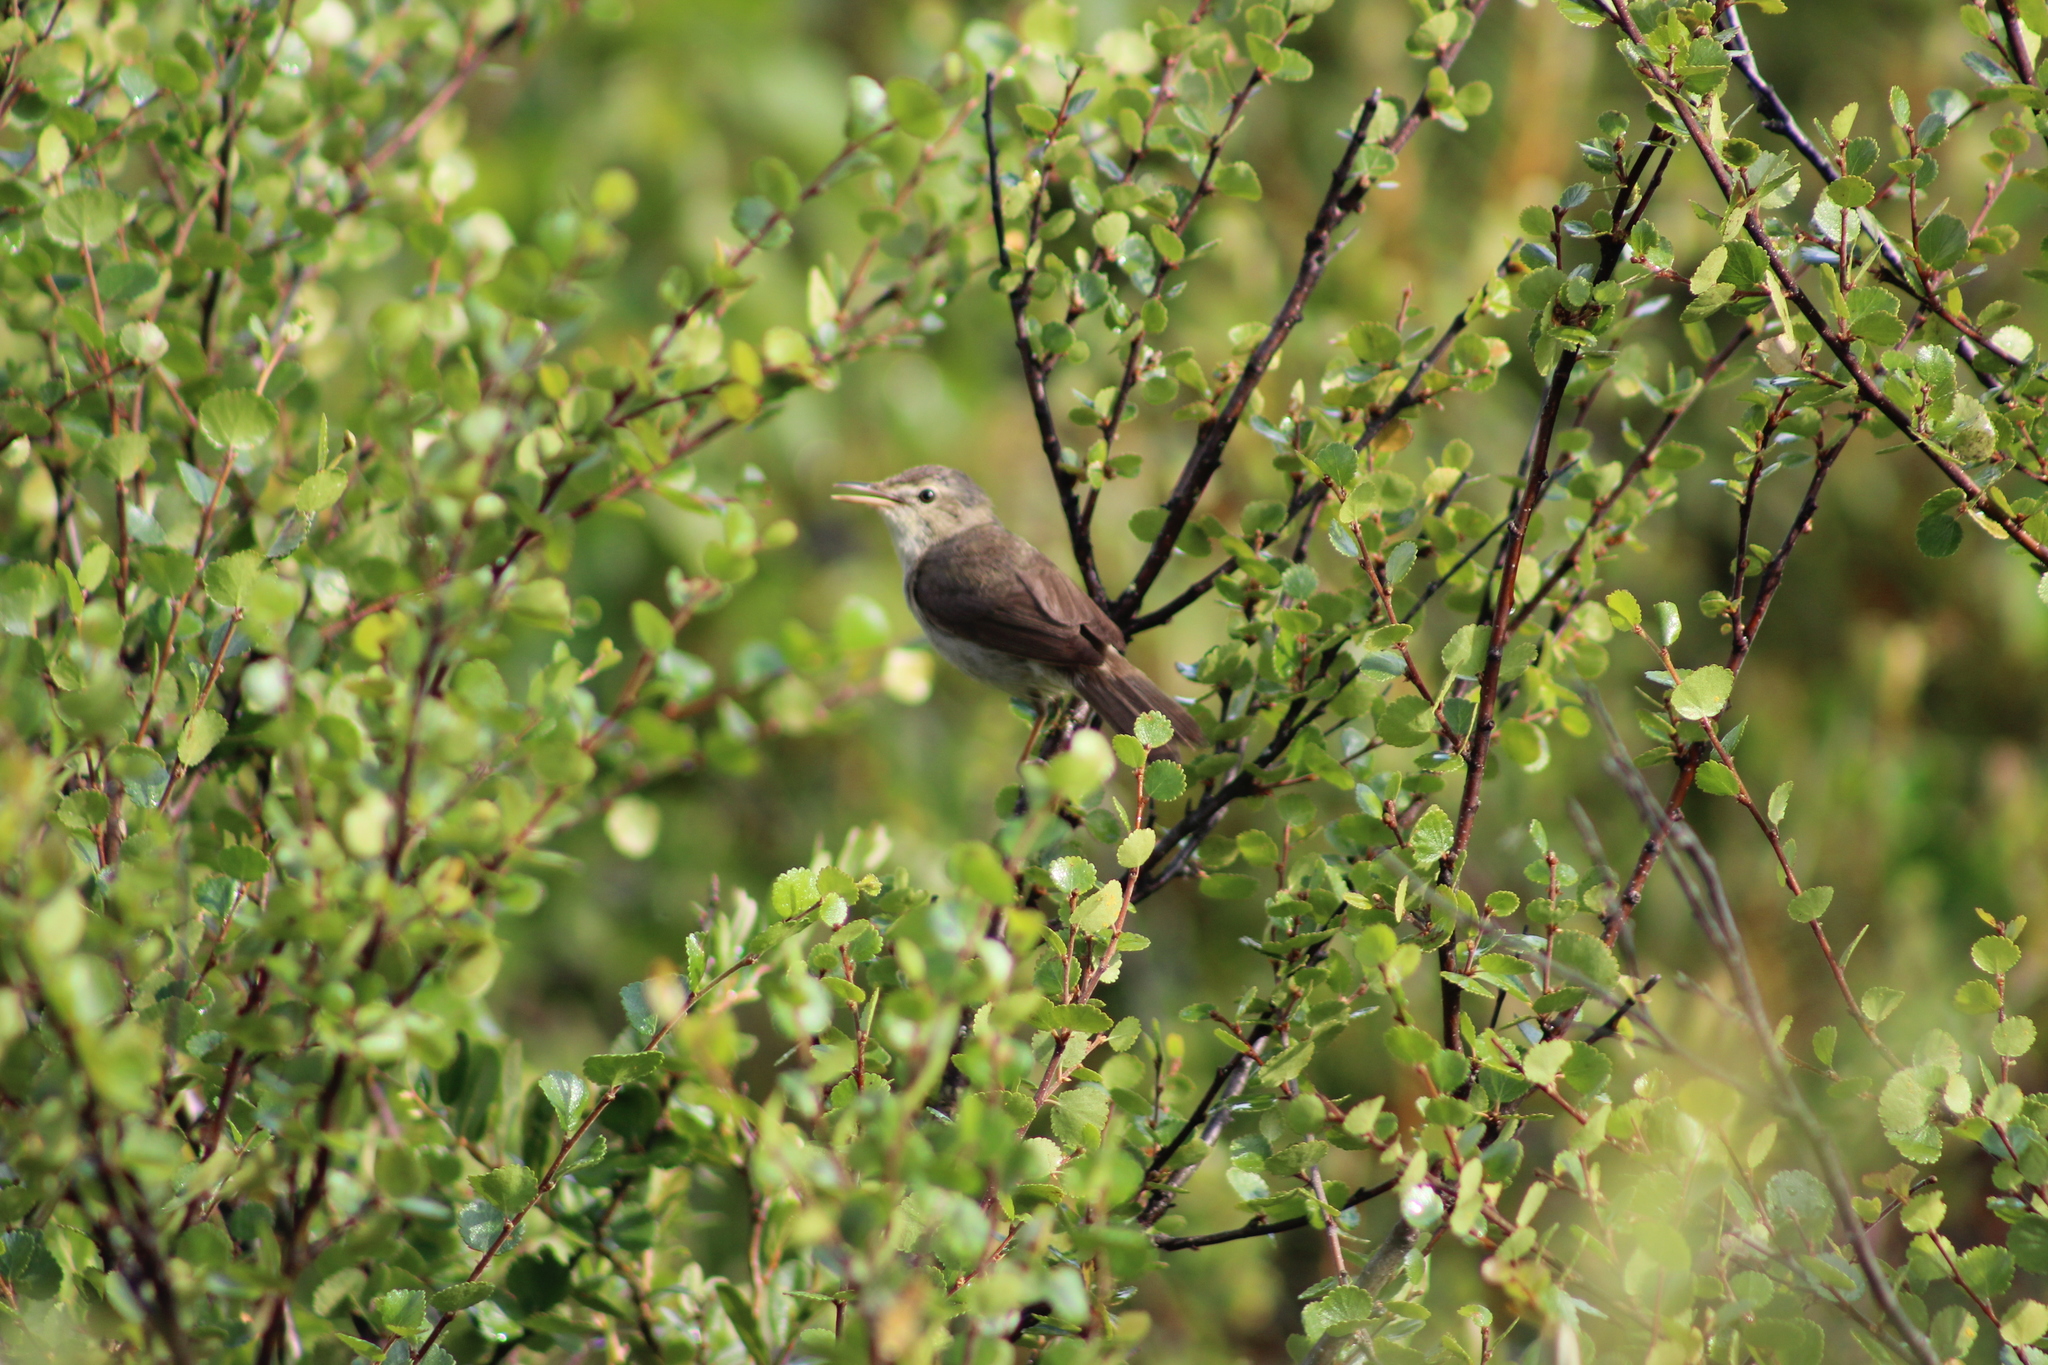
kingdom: Animalia
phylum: Chordata
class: Aves
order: Passeriformes
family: Acrocephalidae
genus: Acrocephalus
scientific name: Acrocephalus dumetorum
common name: Blyth's reed warbler
